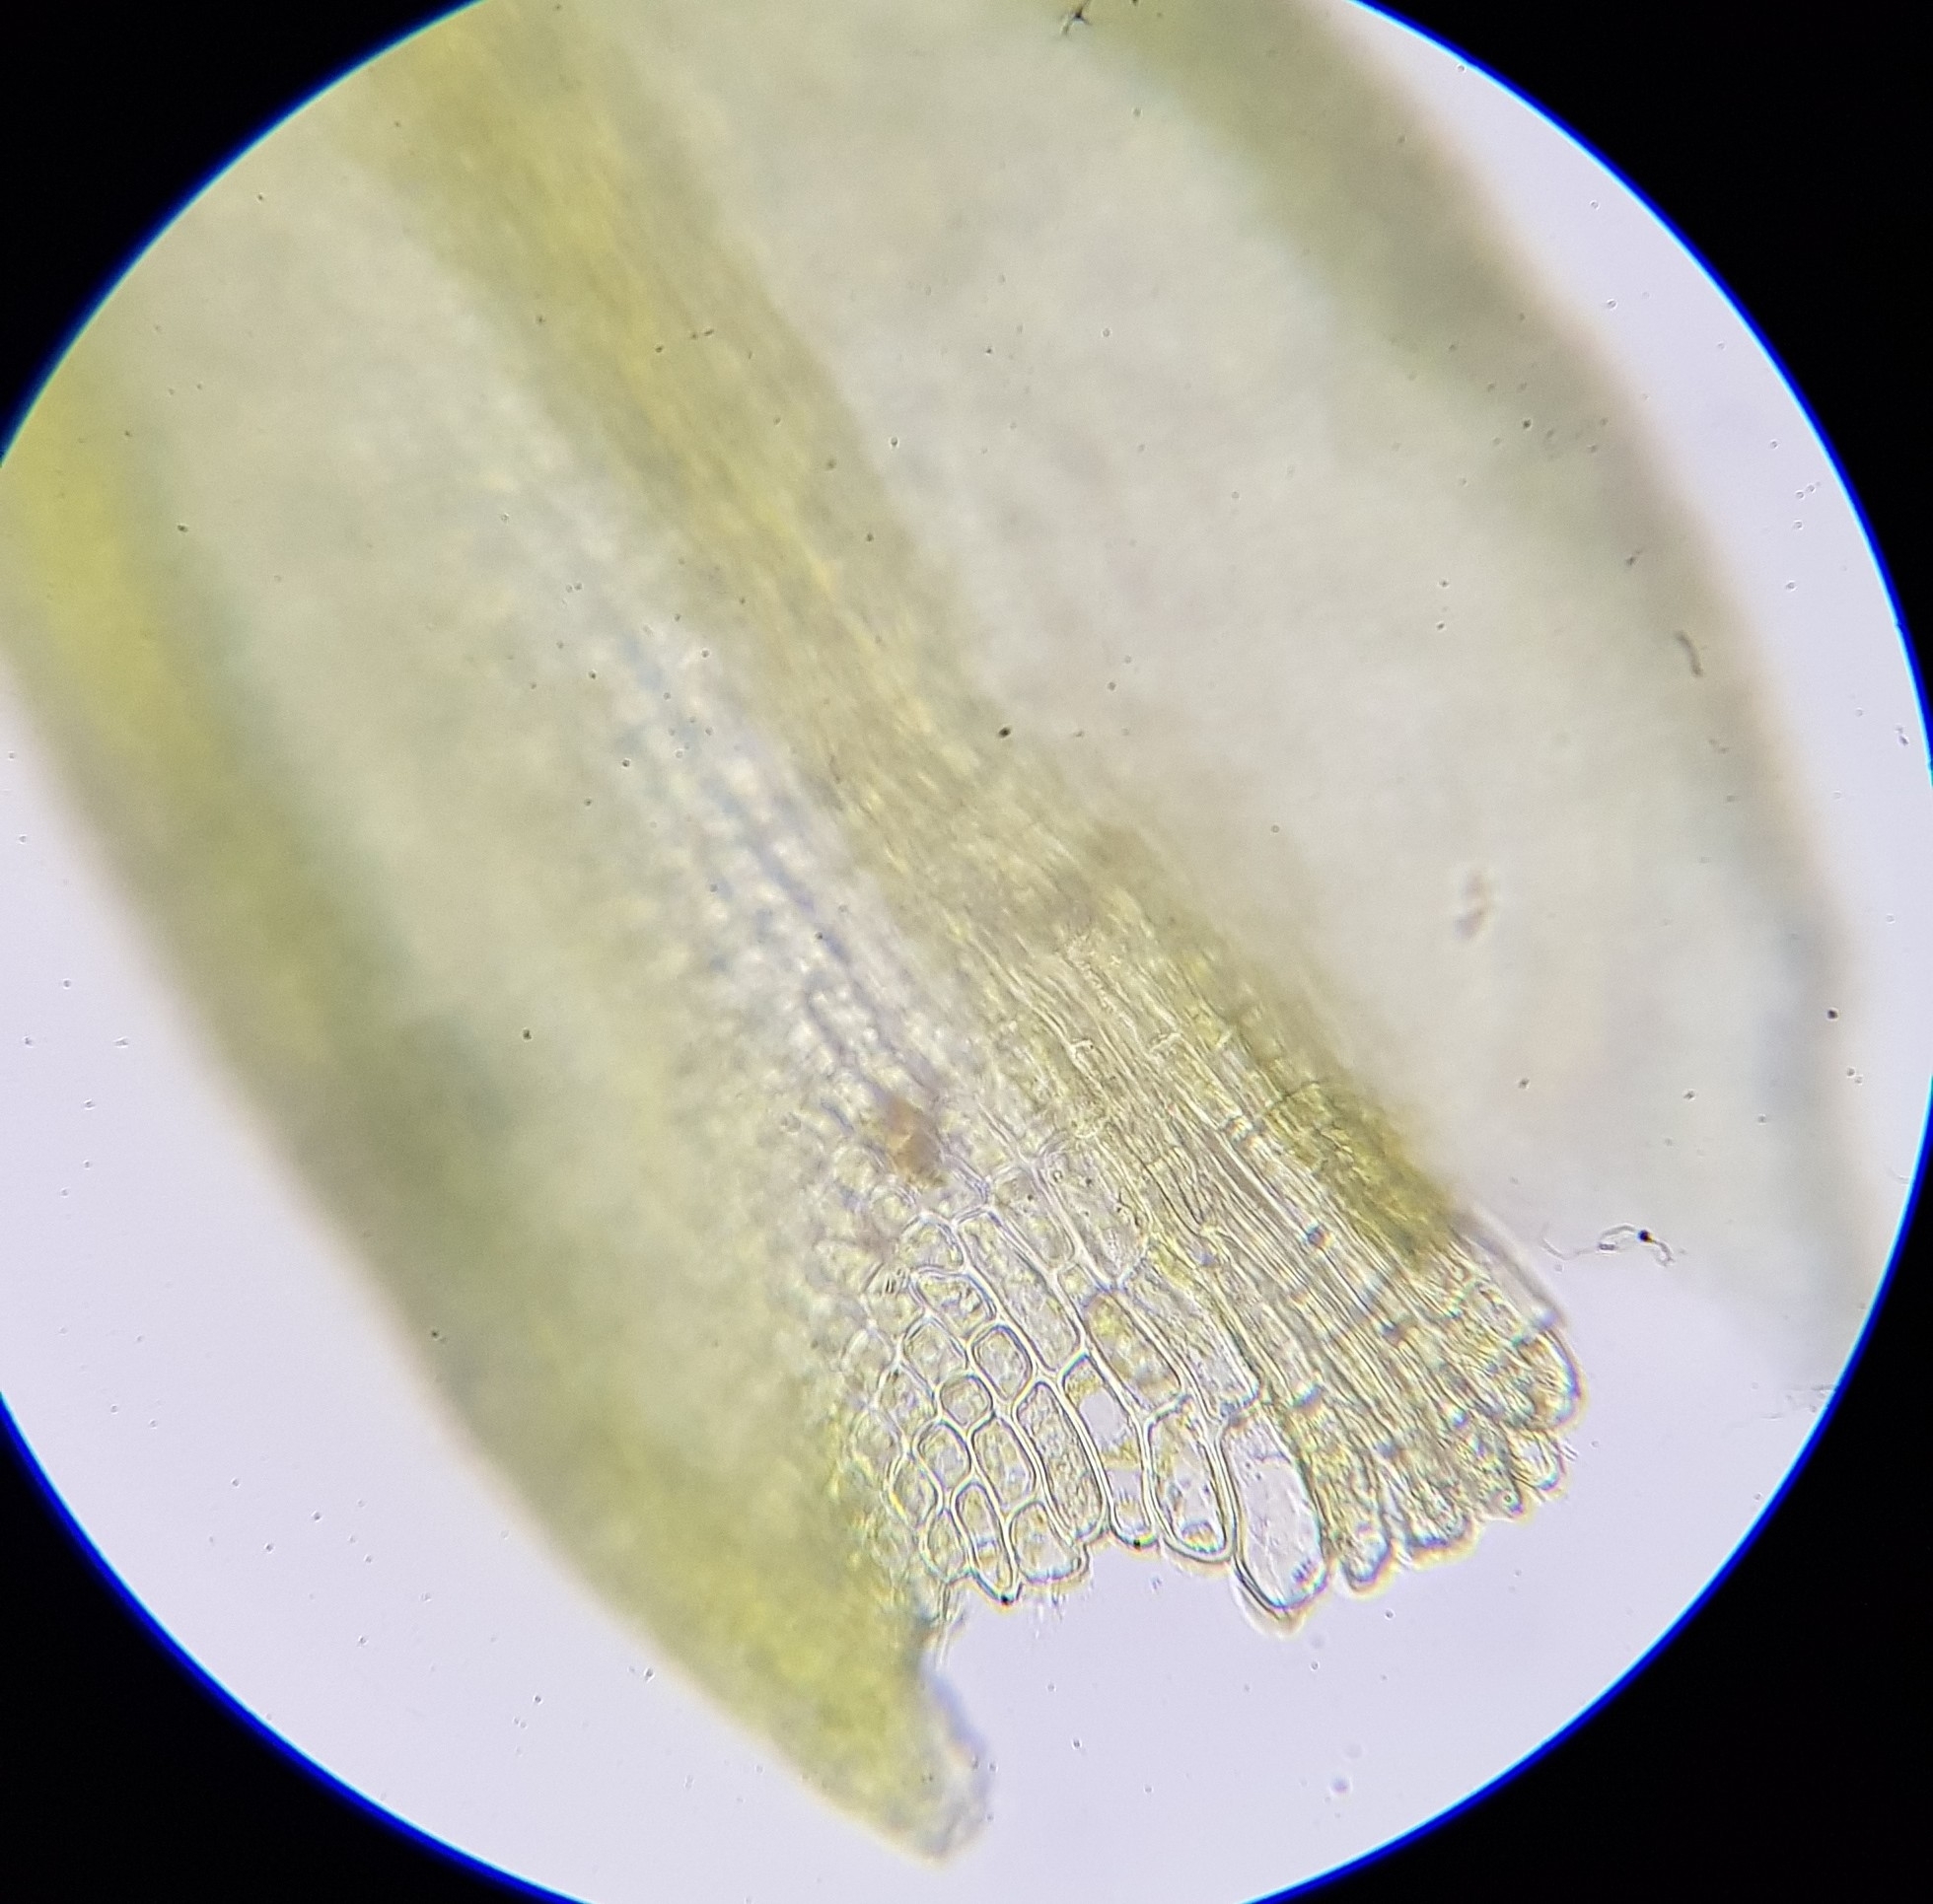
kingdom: Plantae
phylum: Bryophyta
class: Bryopsida
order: Pottiales
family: Pottiaceae
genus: Pseudocrossidium
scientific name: Pseudocrossidium hornschuchianum
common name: Hornschuch's beard-moss
